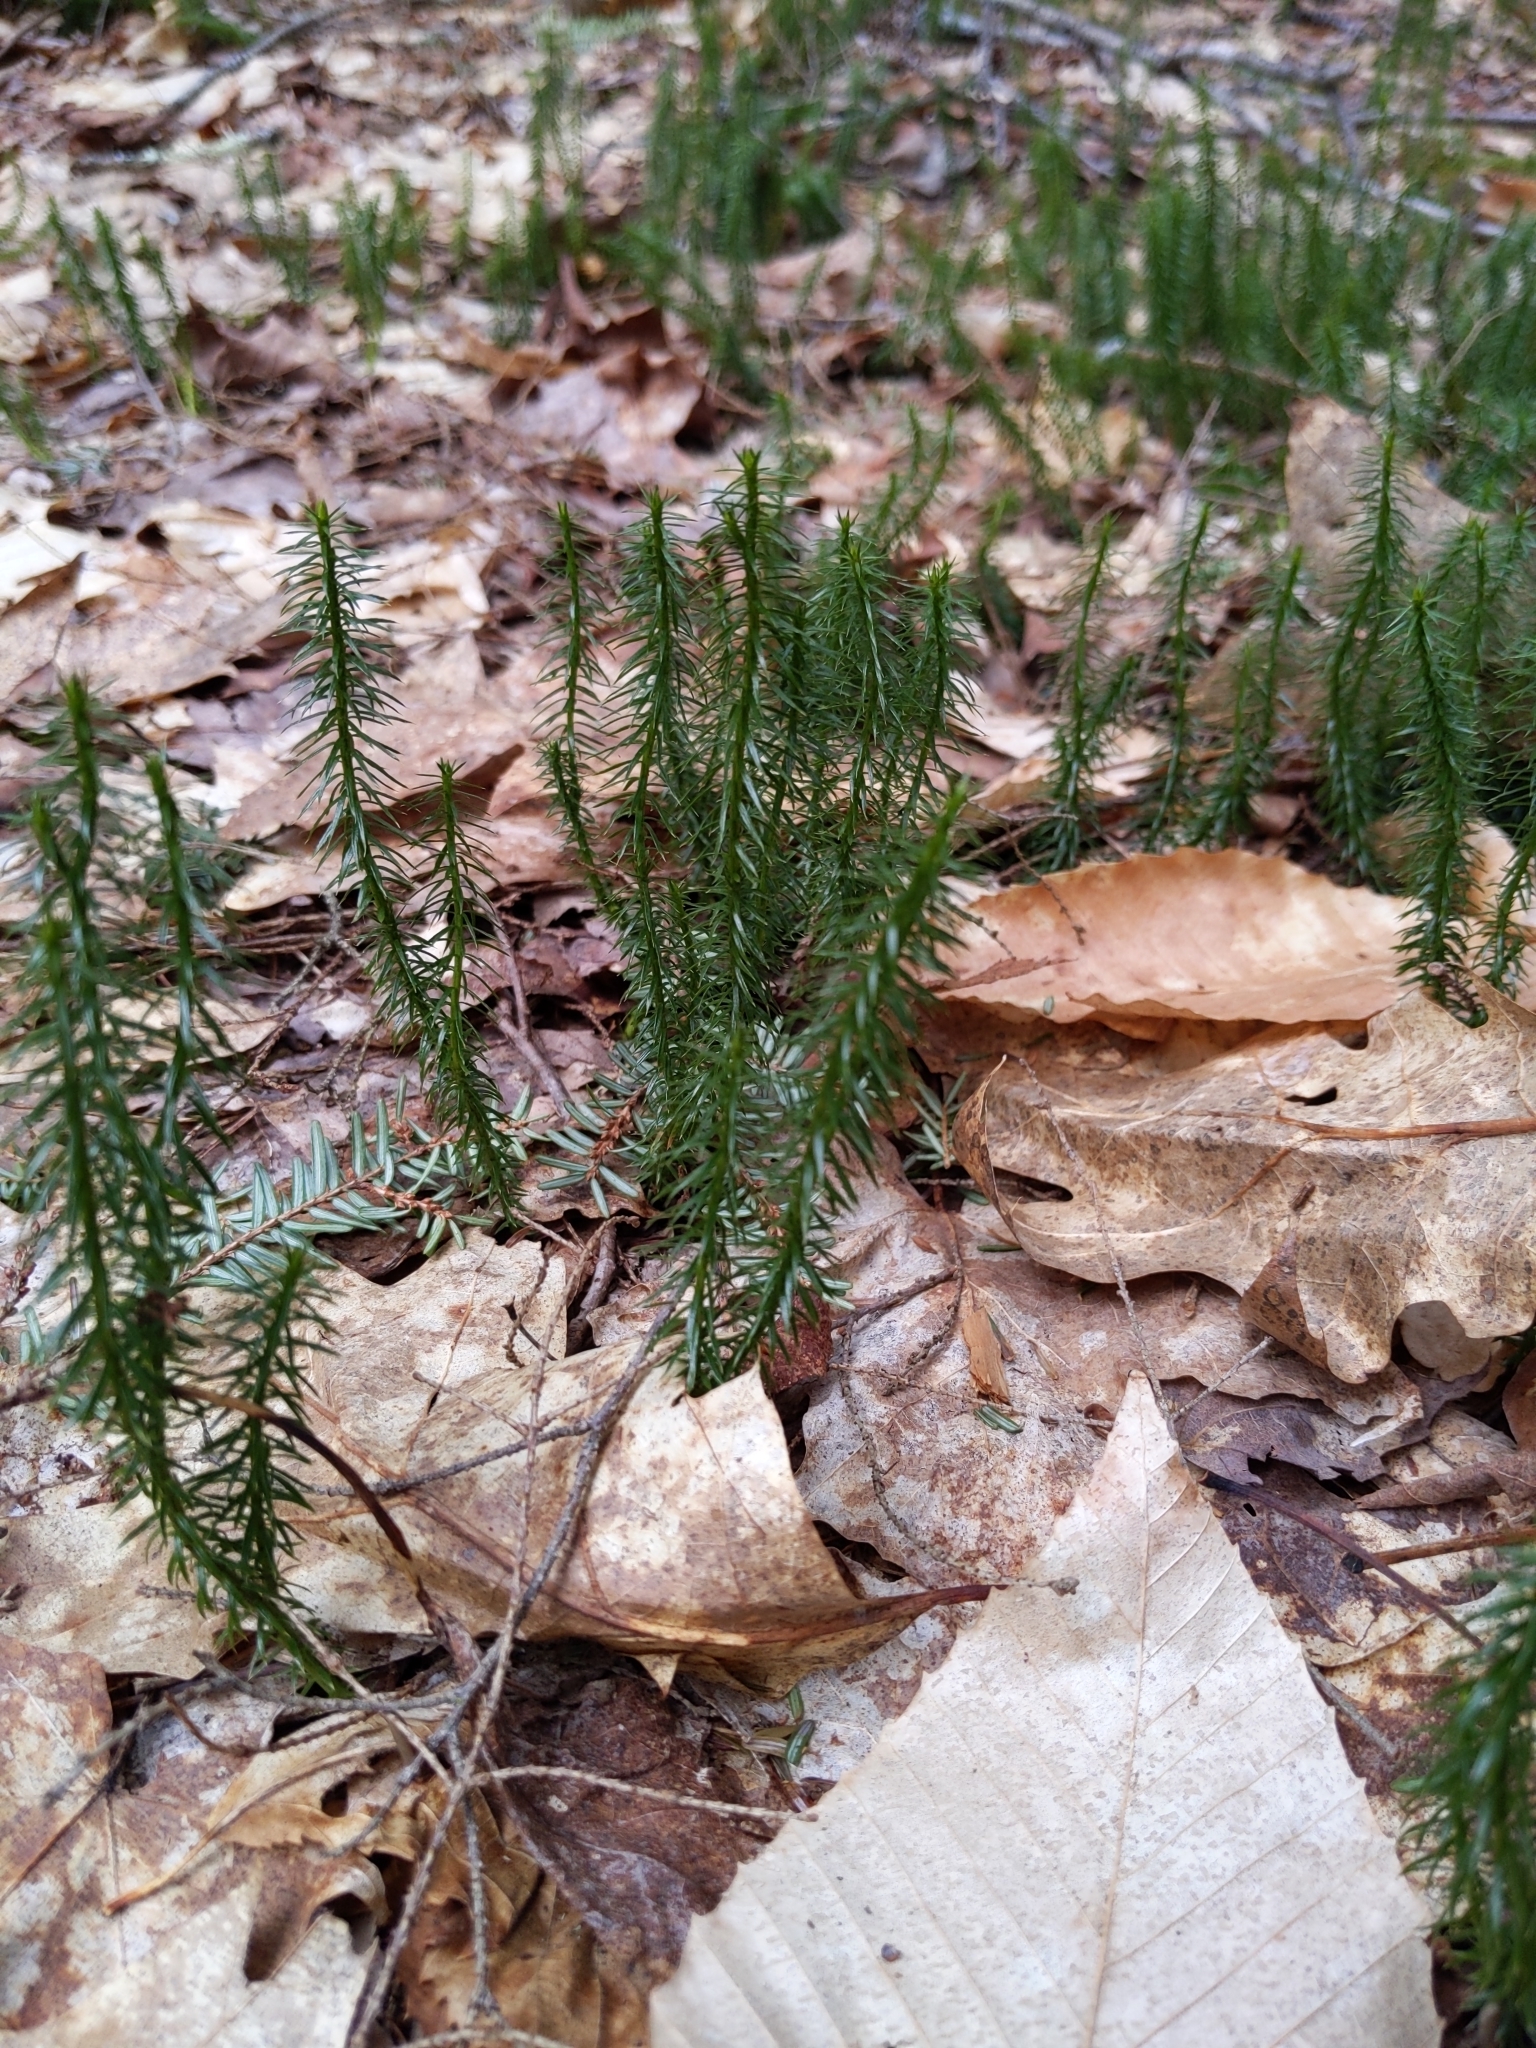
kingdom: Plantae
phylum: Tracheophyta
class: Lycopodiopsida
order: Lycopodiales
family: Lycopodiaceae
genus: Spinulum
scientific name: Spinulum annotinum
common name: Interrupted club-moss
